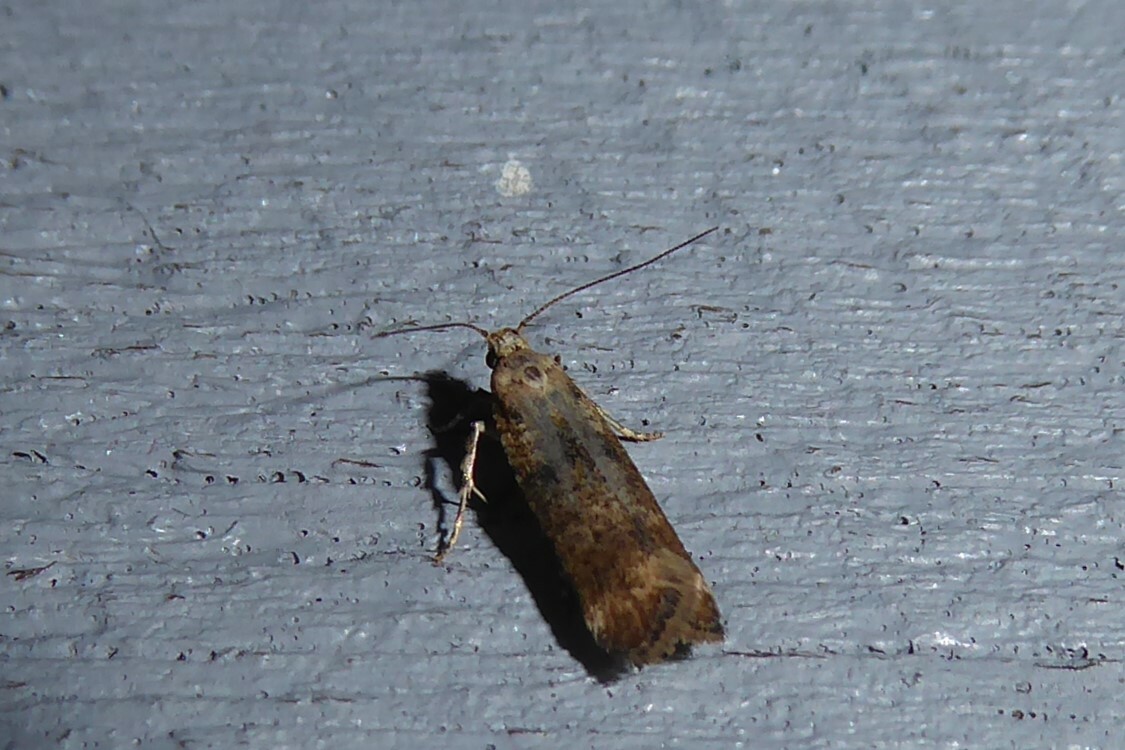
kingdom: Animalia
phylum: Arthropoda
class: Insecta
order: Lepidoptera
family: Gelechiidae
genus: Anisoplaca
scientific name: Anisoplaca acrodactyla
